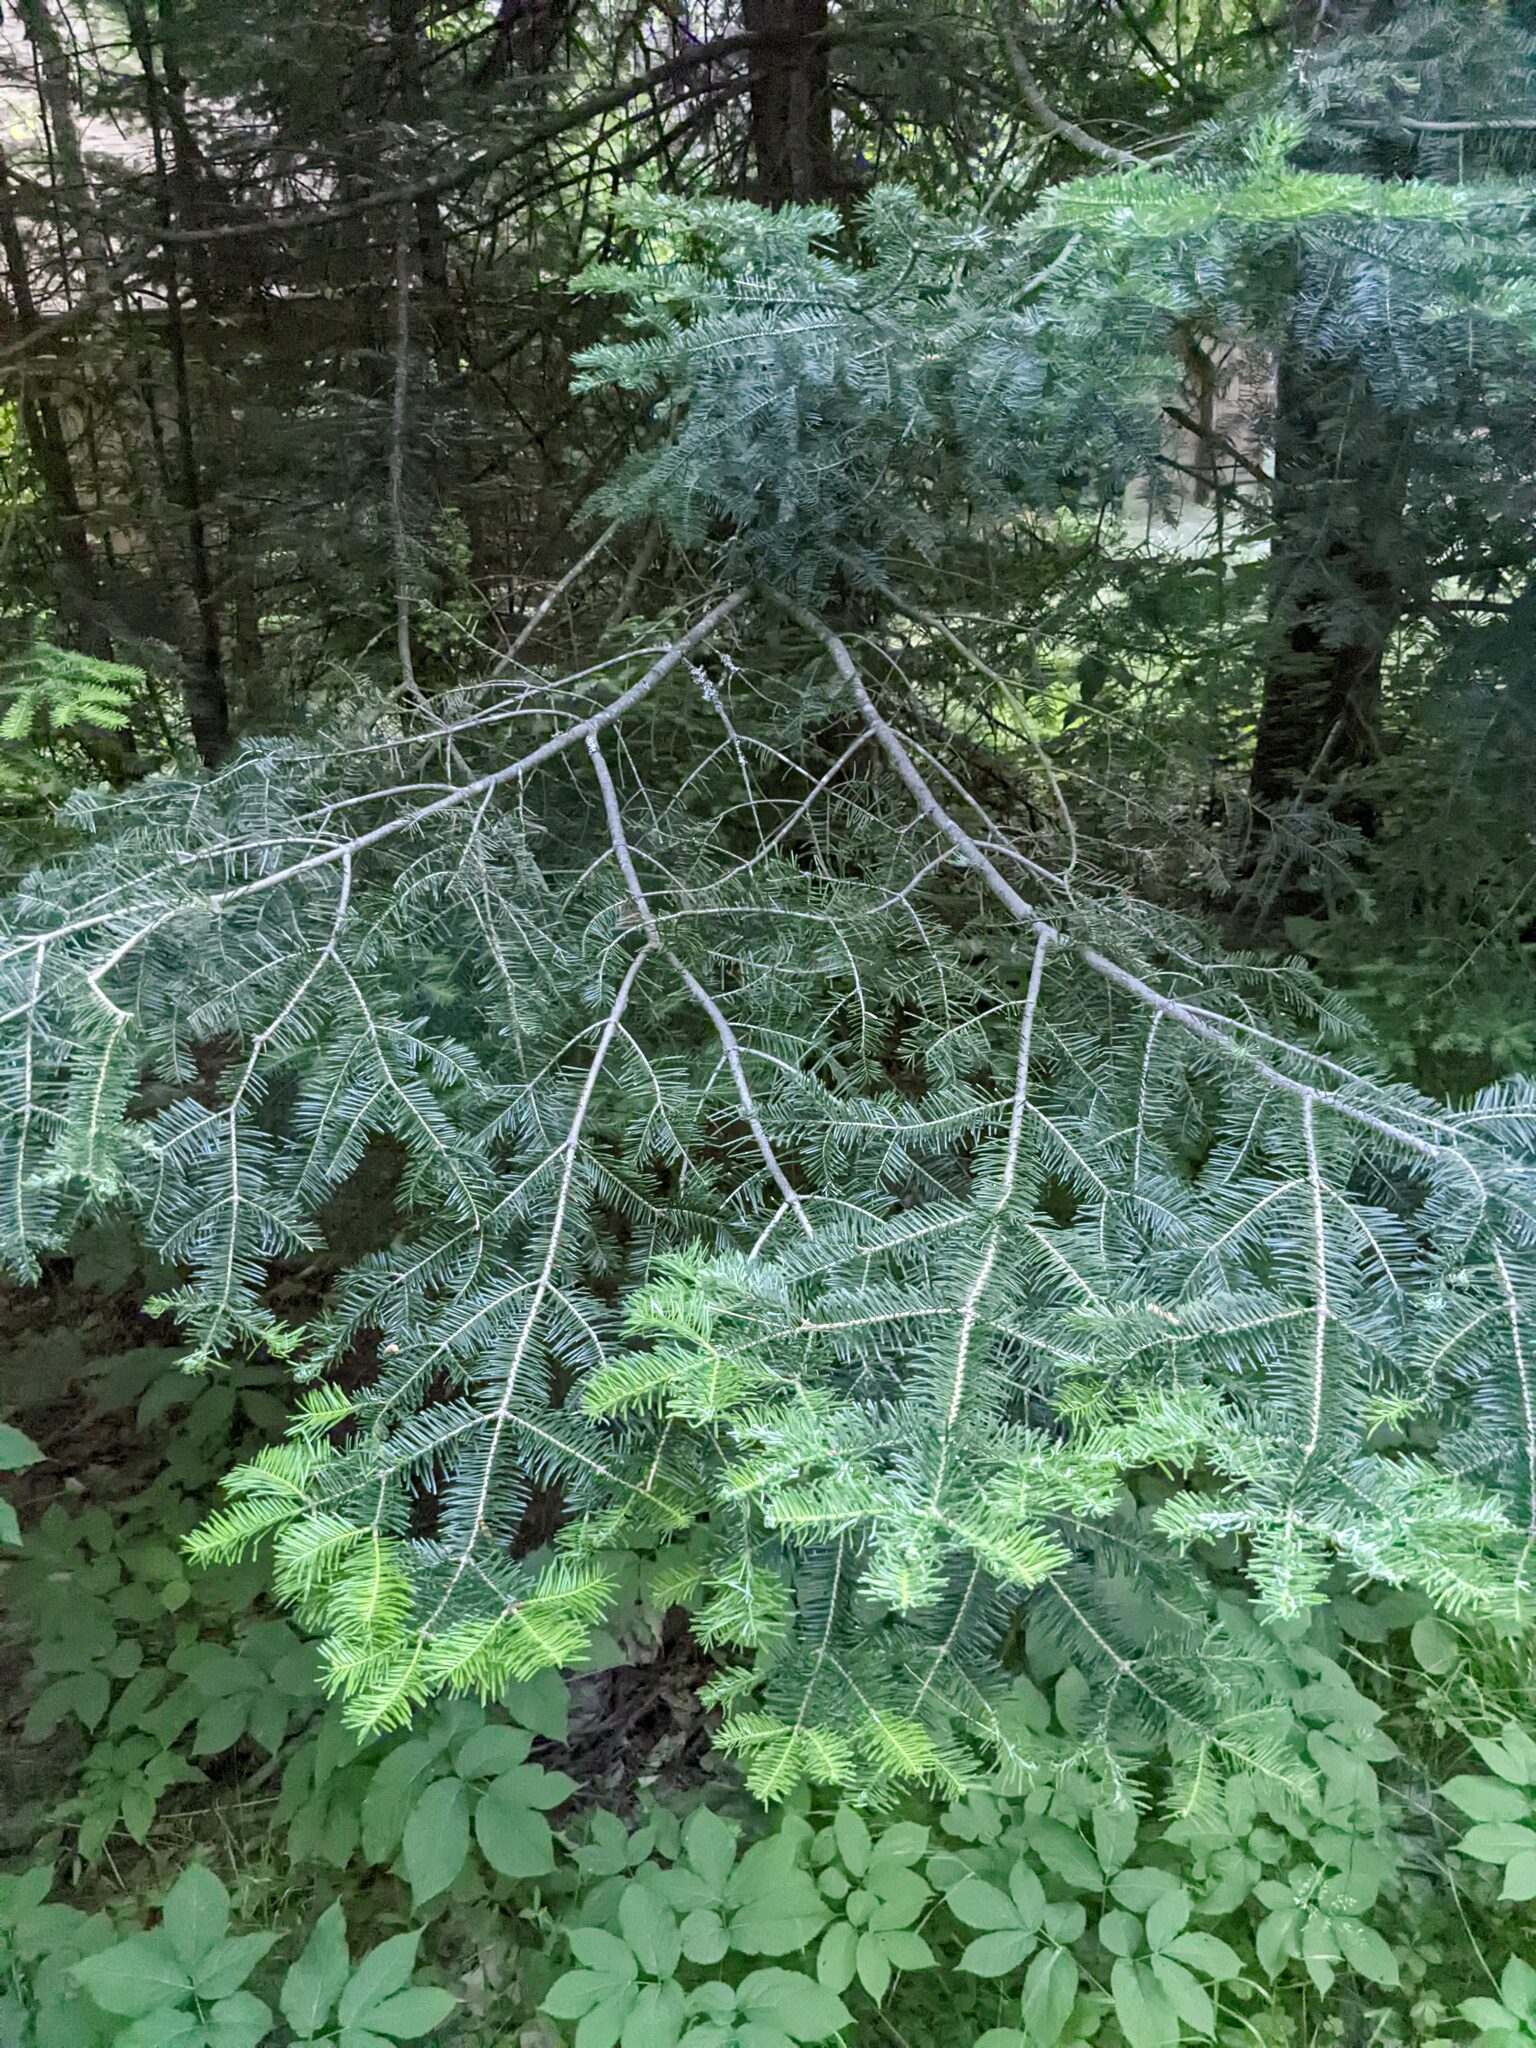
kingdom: Plantae
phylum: Tracheophyta
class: Pinopsida
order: Pinales
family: Pinaceae
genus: Abies
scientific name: Abies balsamea
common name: Balsam fir
